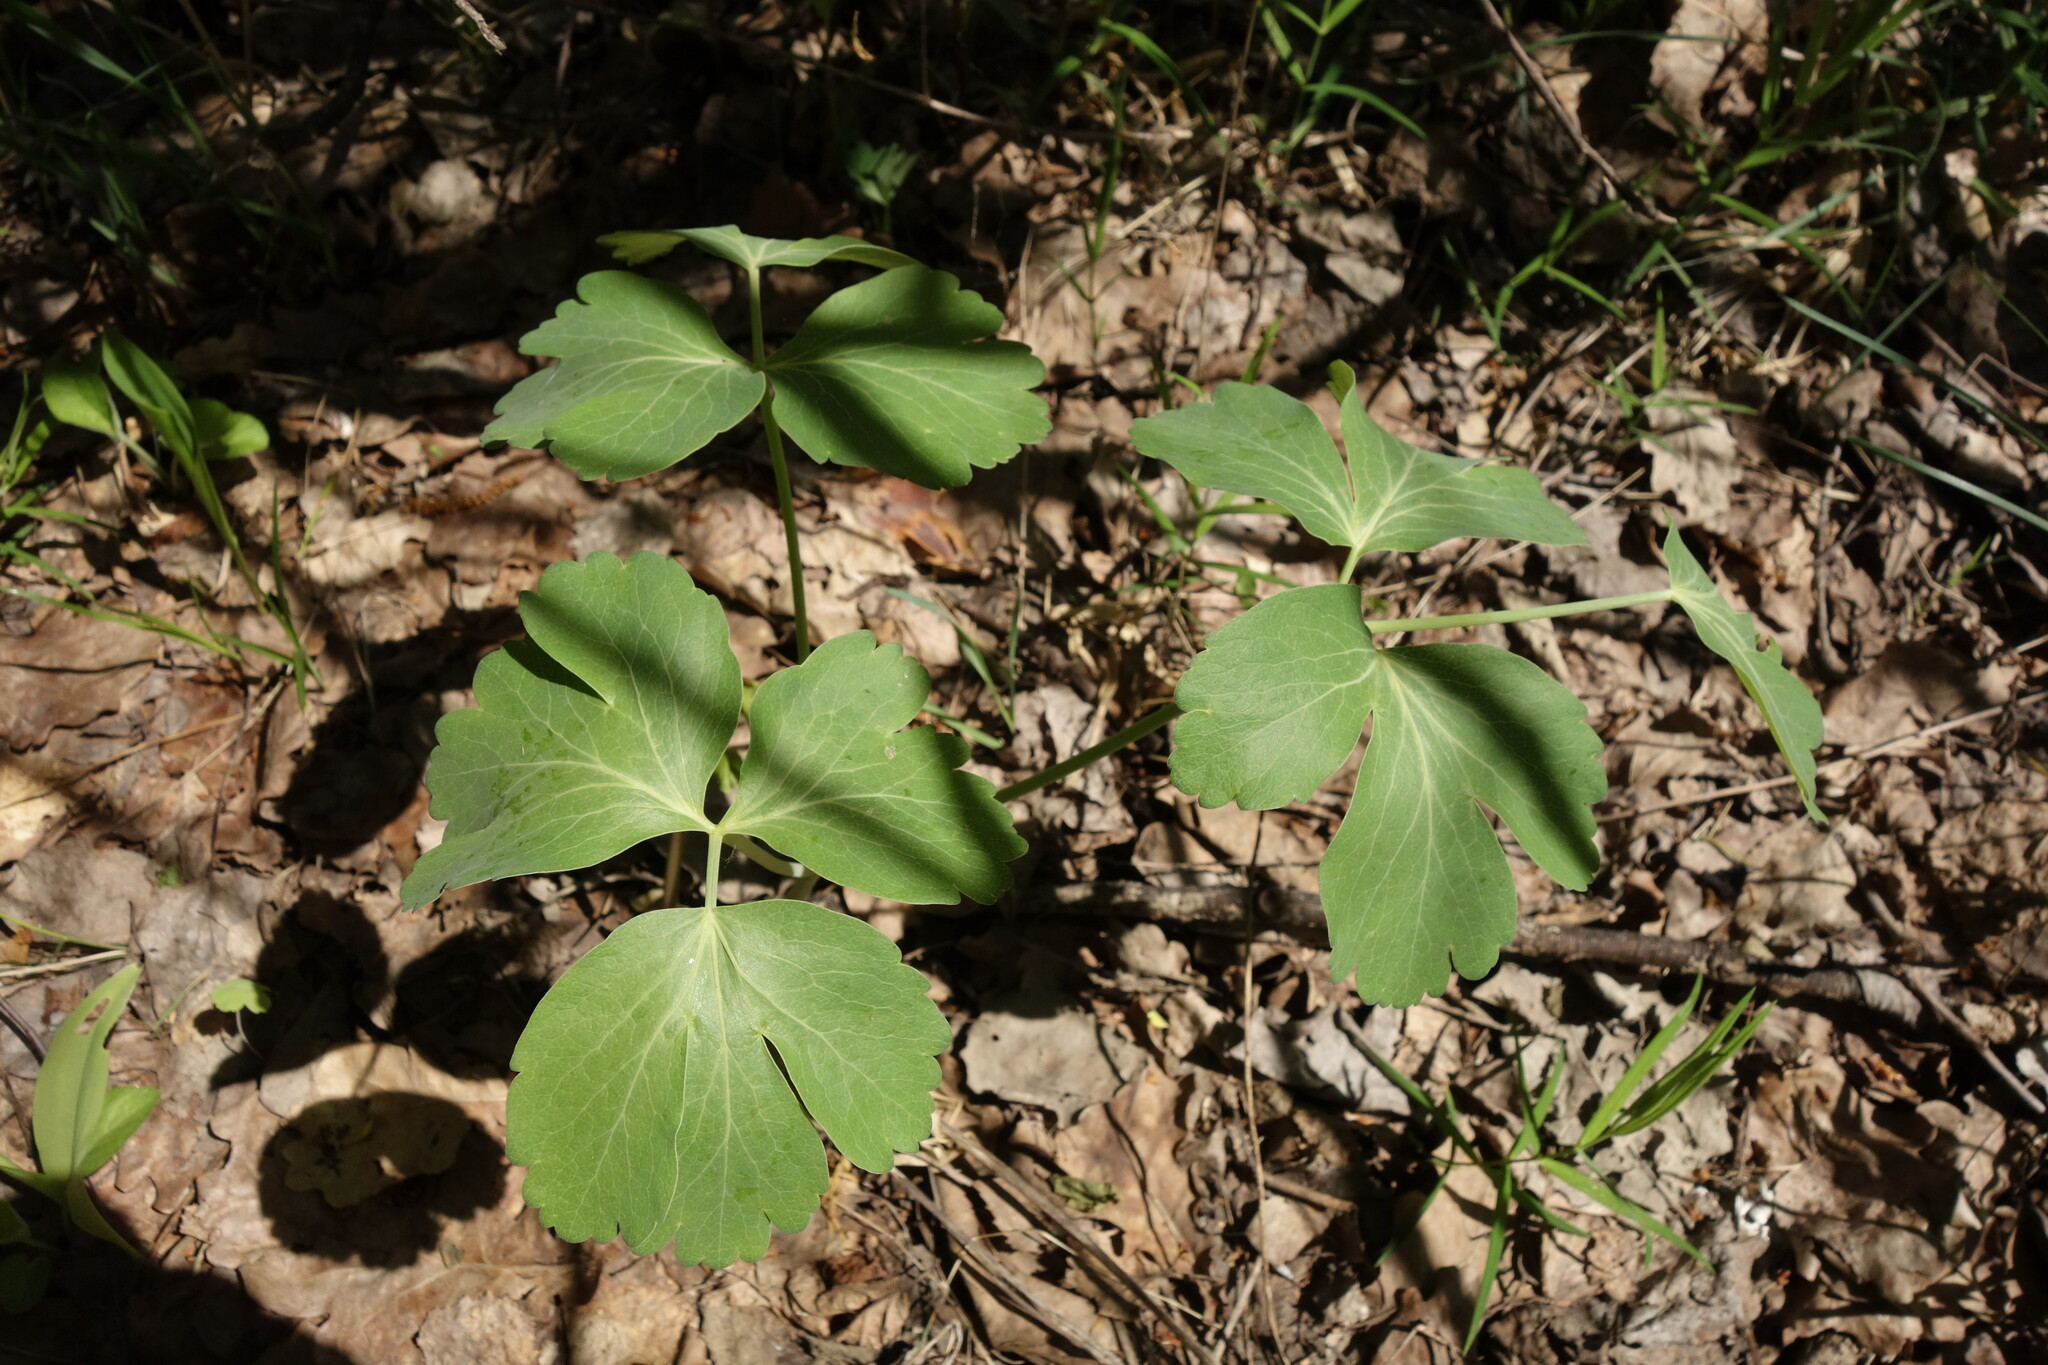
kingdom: Plantae
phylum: Tracheophyta
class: Magnoliopsida
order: Apiales
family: Apiaceae
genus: Laser
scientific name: Laser trilobum
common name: Laser
